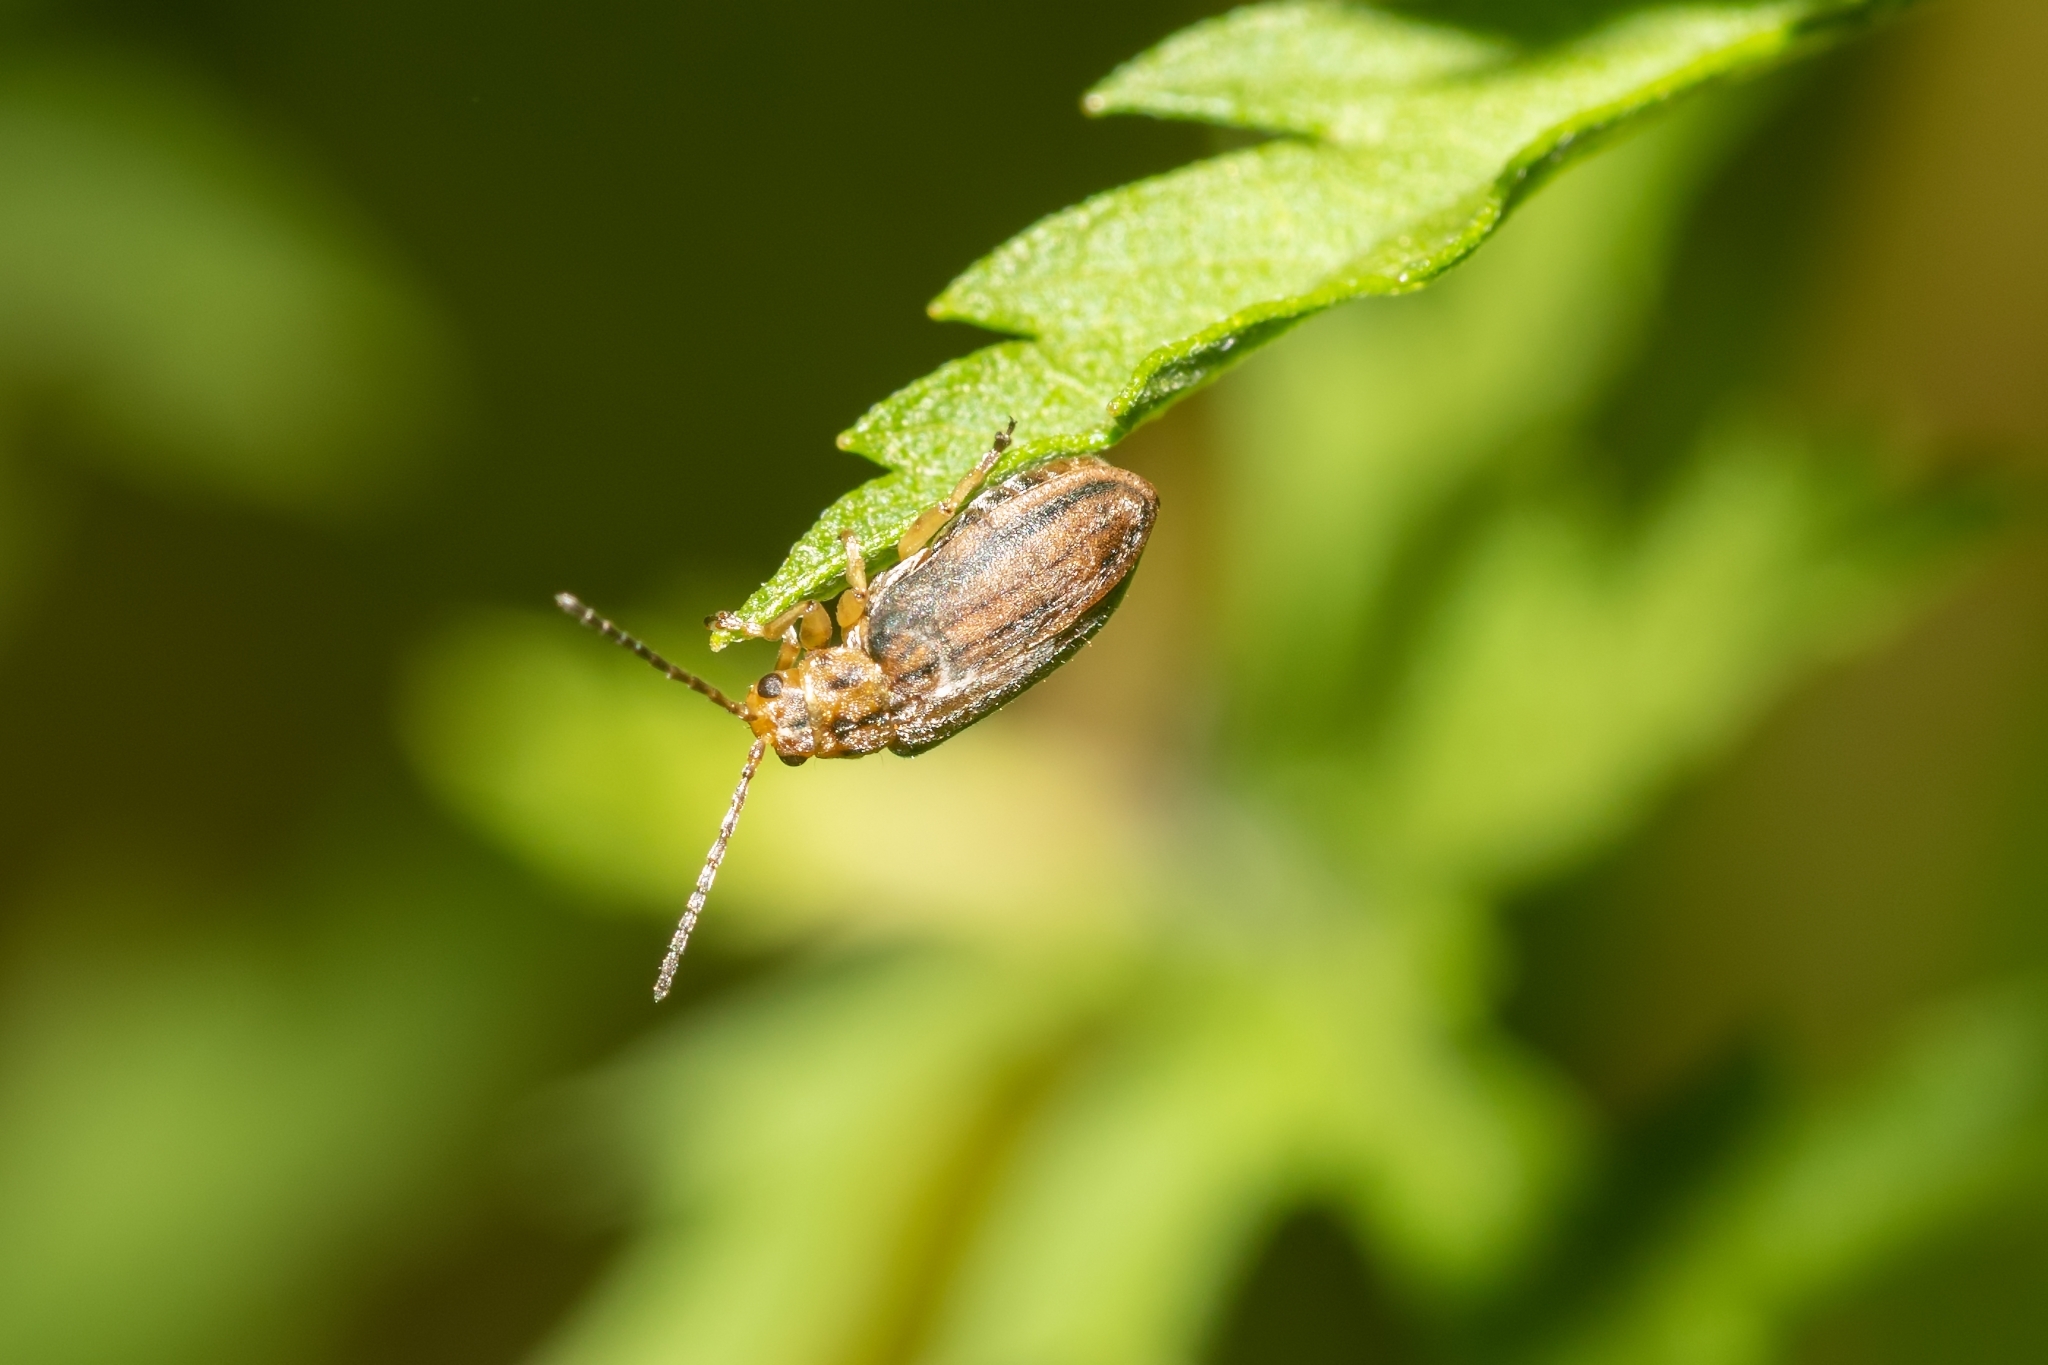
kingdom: Animalia
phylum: Arthropoda
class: Insecta
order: Coleoptera
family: Chrysomelidae
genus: Ophraella
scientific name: Ophraella slobodkini
